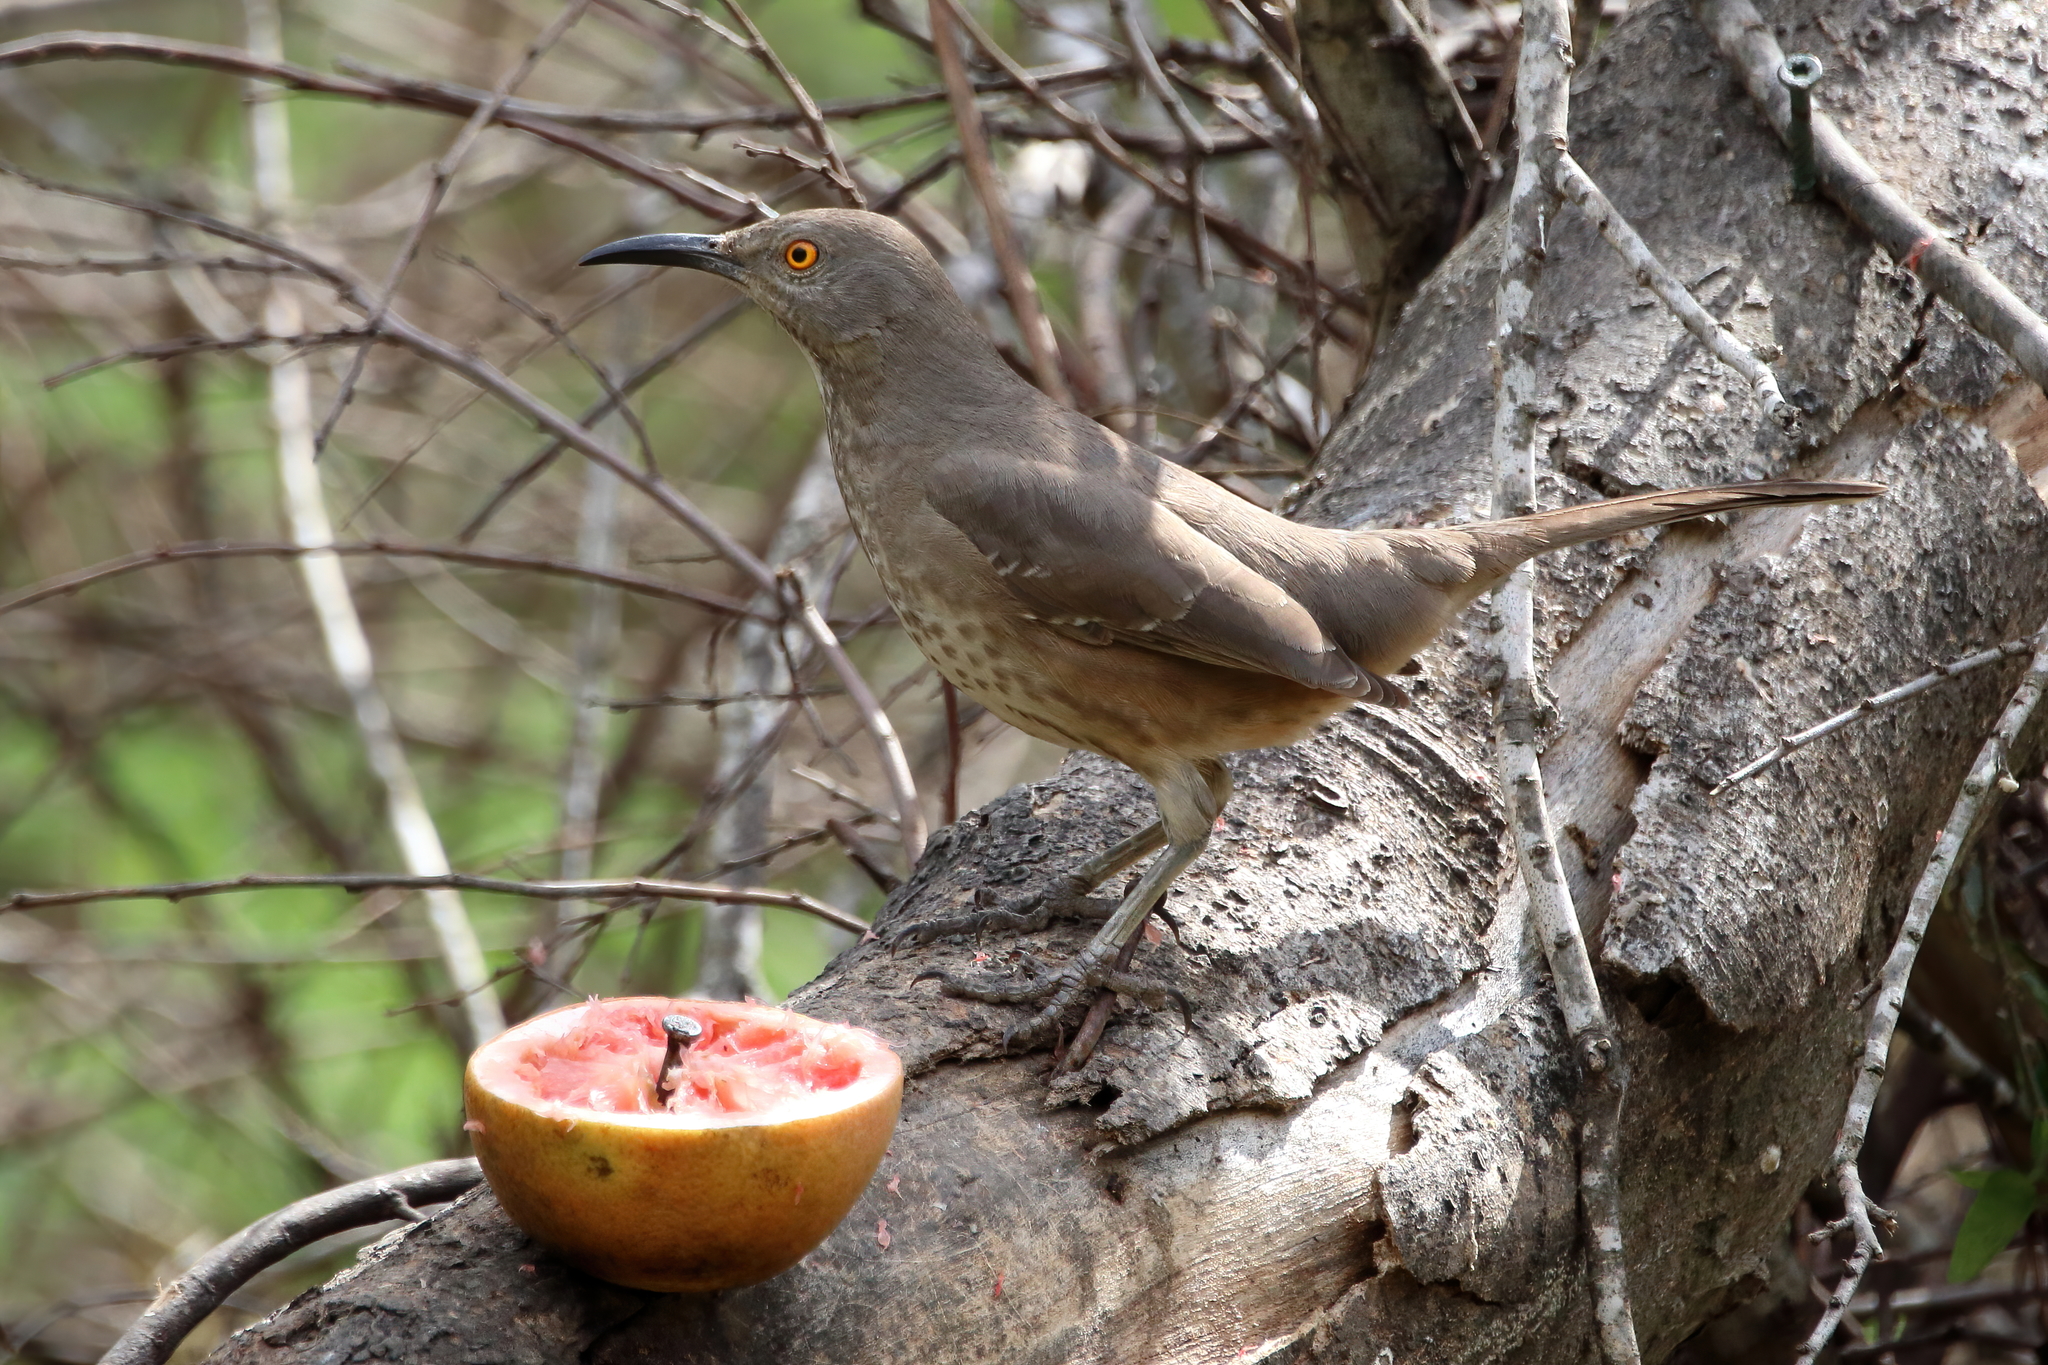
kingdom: Animalia
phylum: Chordata
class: Aves
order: Passeriformes
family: Mimidae
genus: Toxostoma
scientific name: Toxostoma curvirostre
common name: Curve-billed thrasher
